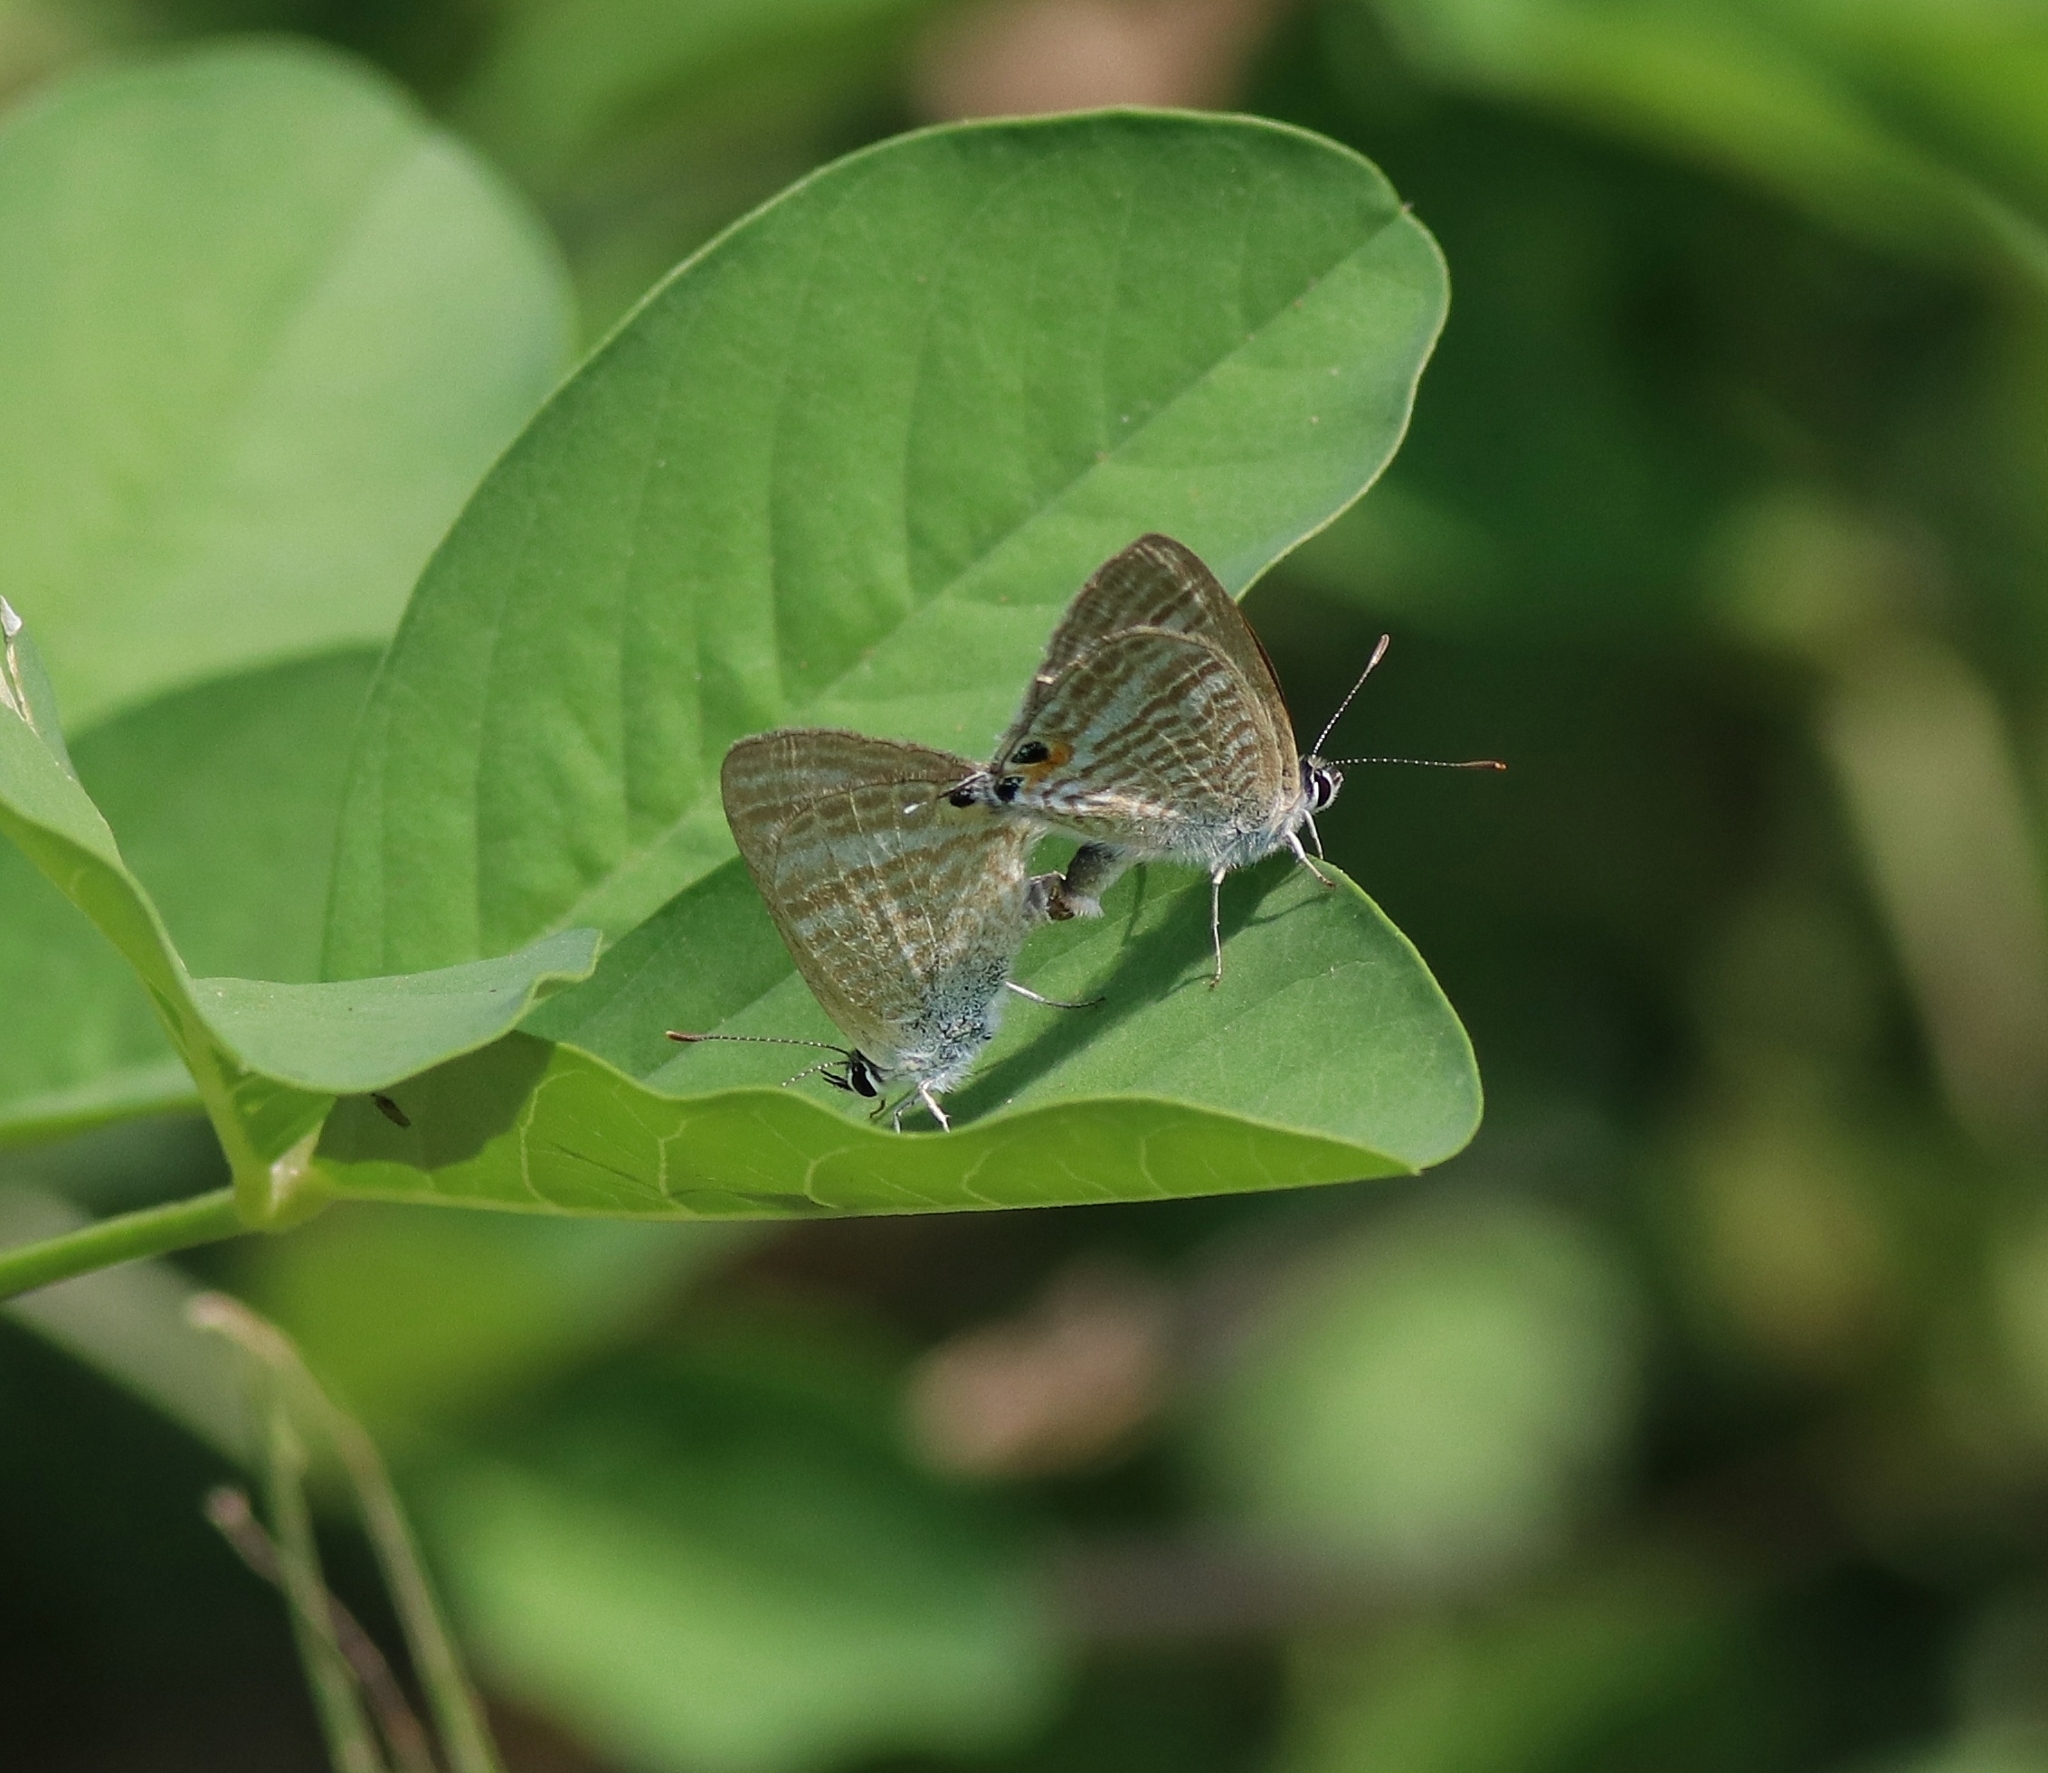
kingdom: Animalia
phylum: Arthropoda
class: Insecta
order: Lepidoptera
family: Lycaenidae
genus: Lampides
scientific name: Lampides boeticus
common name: Long-tailed blue
